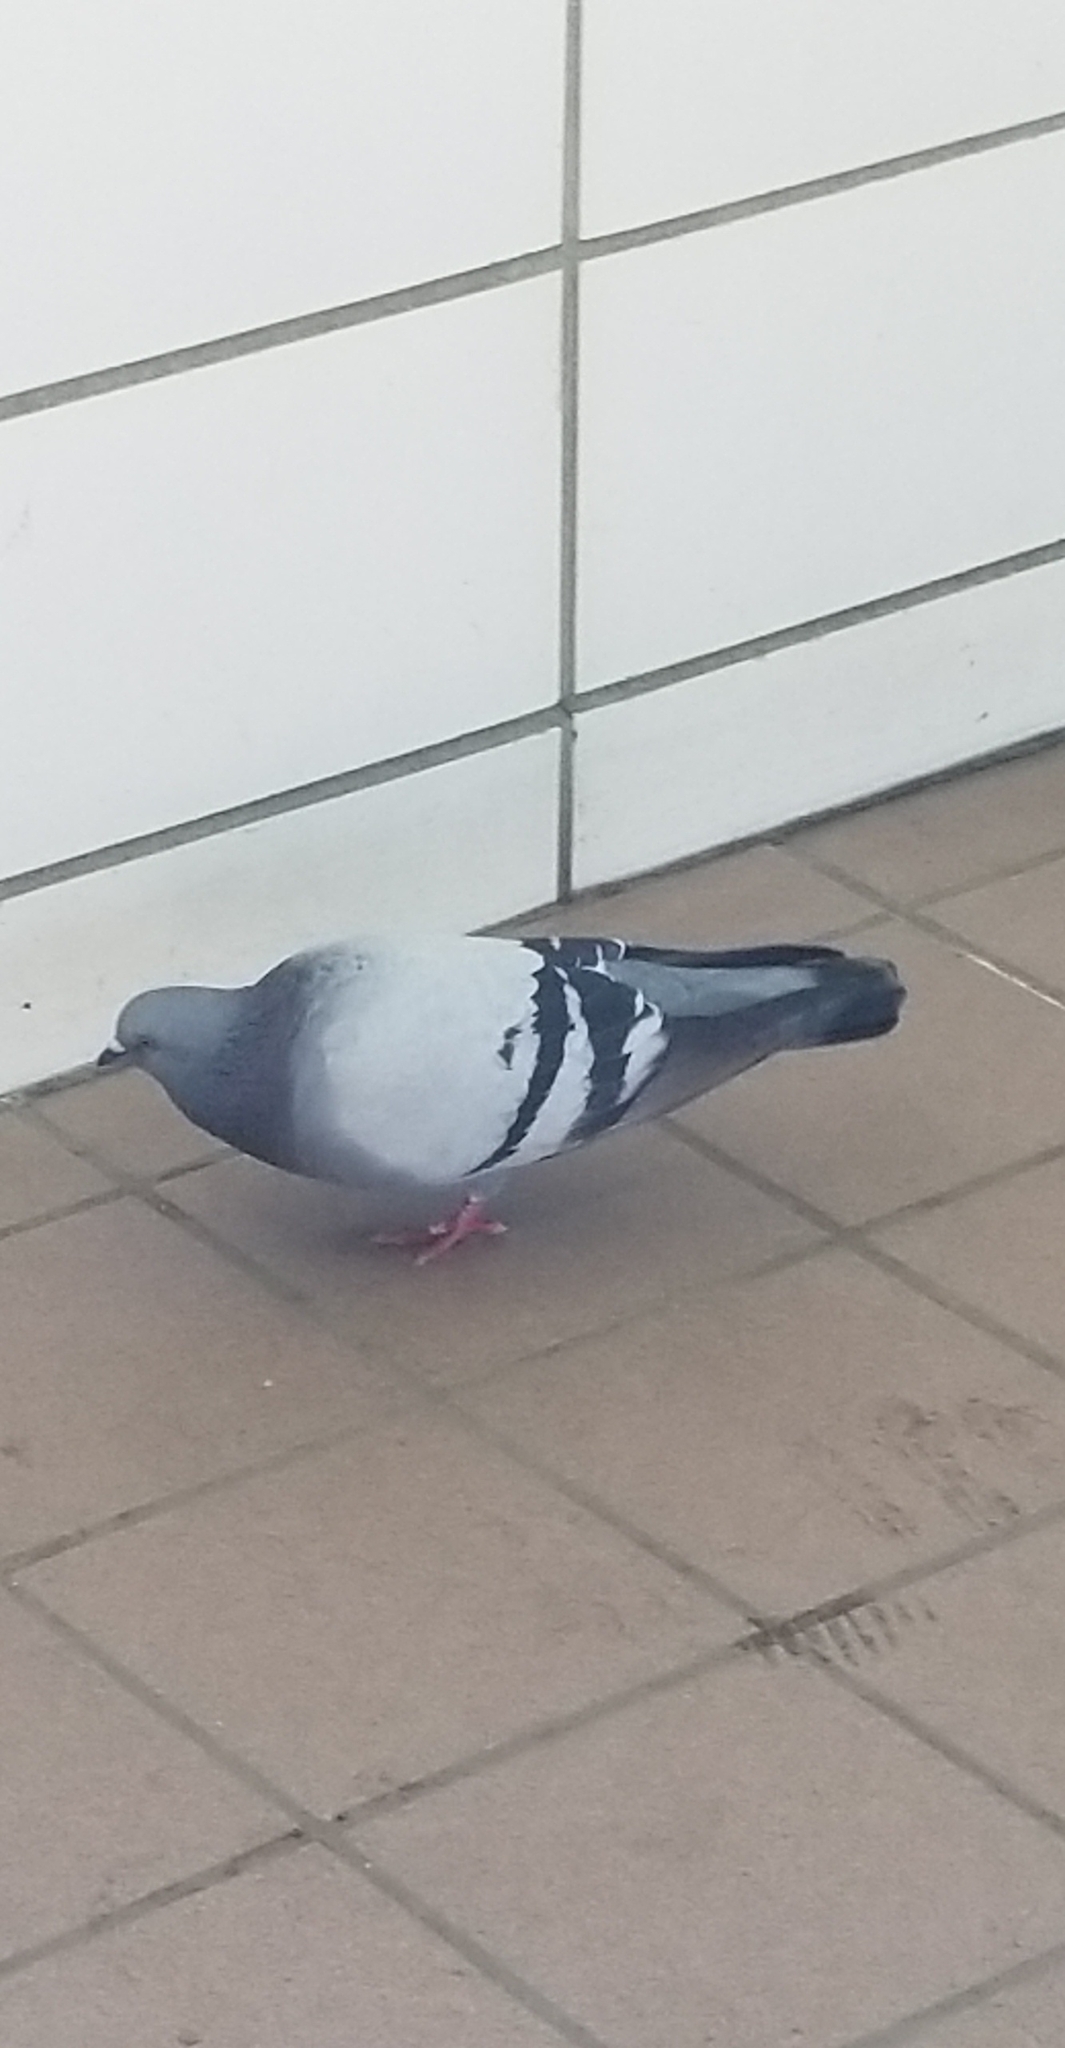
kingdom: Animalia
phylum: Chordata
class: Aves
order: Columbiformes
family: Columbidae
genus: Columba
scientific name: Columba livia
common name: Rock pigeon
